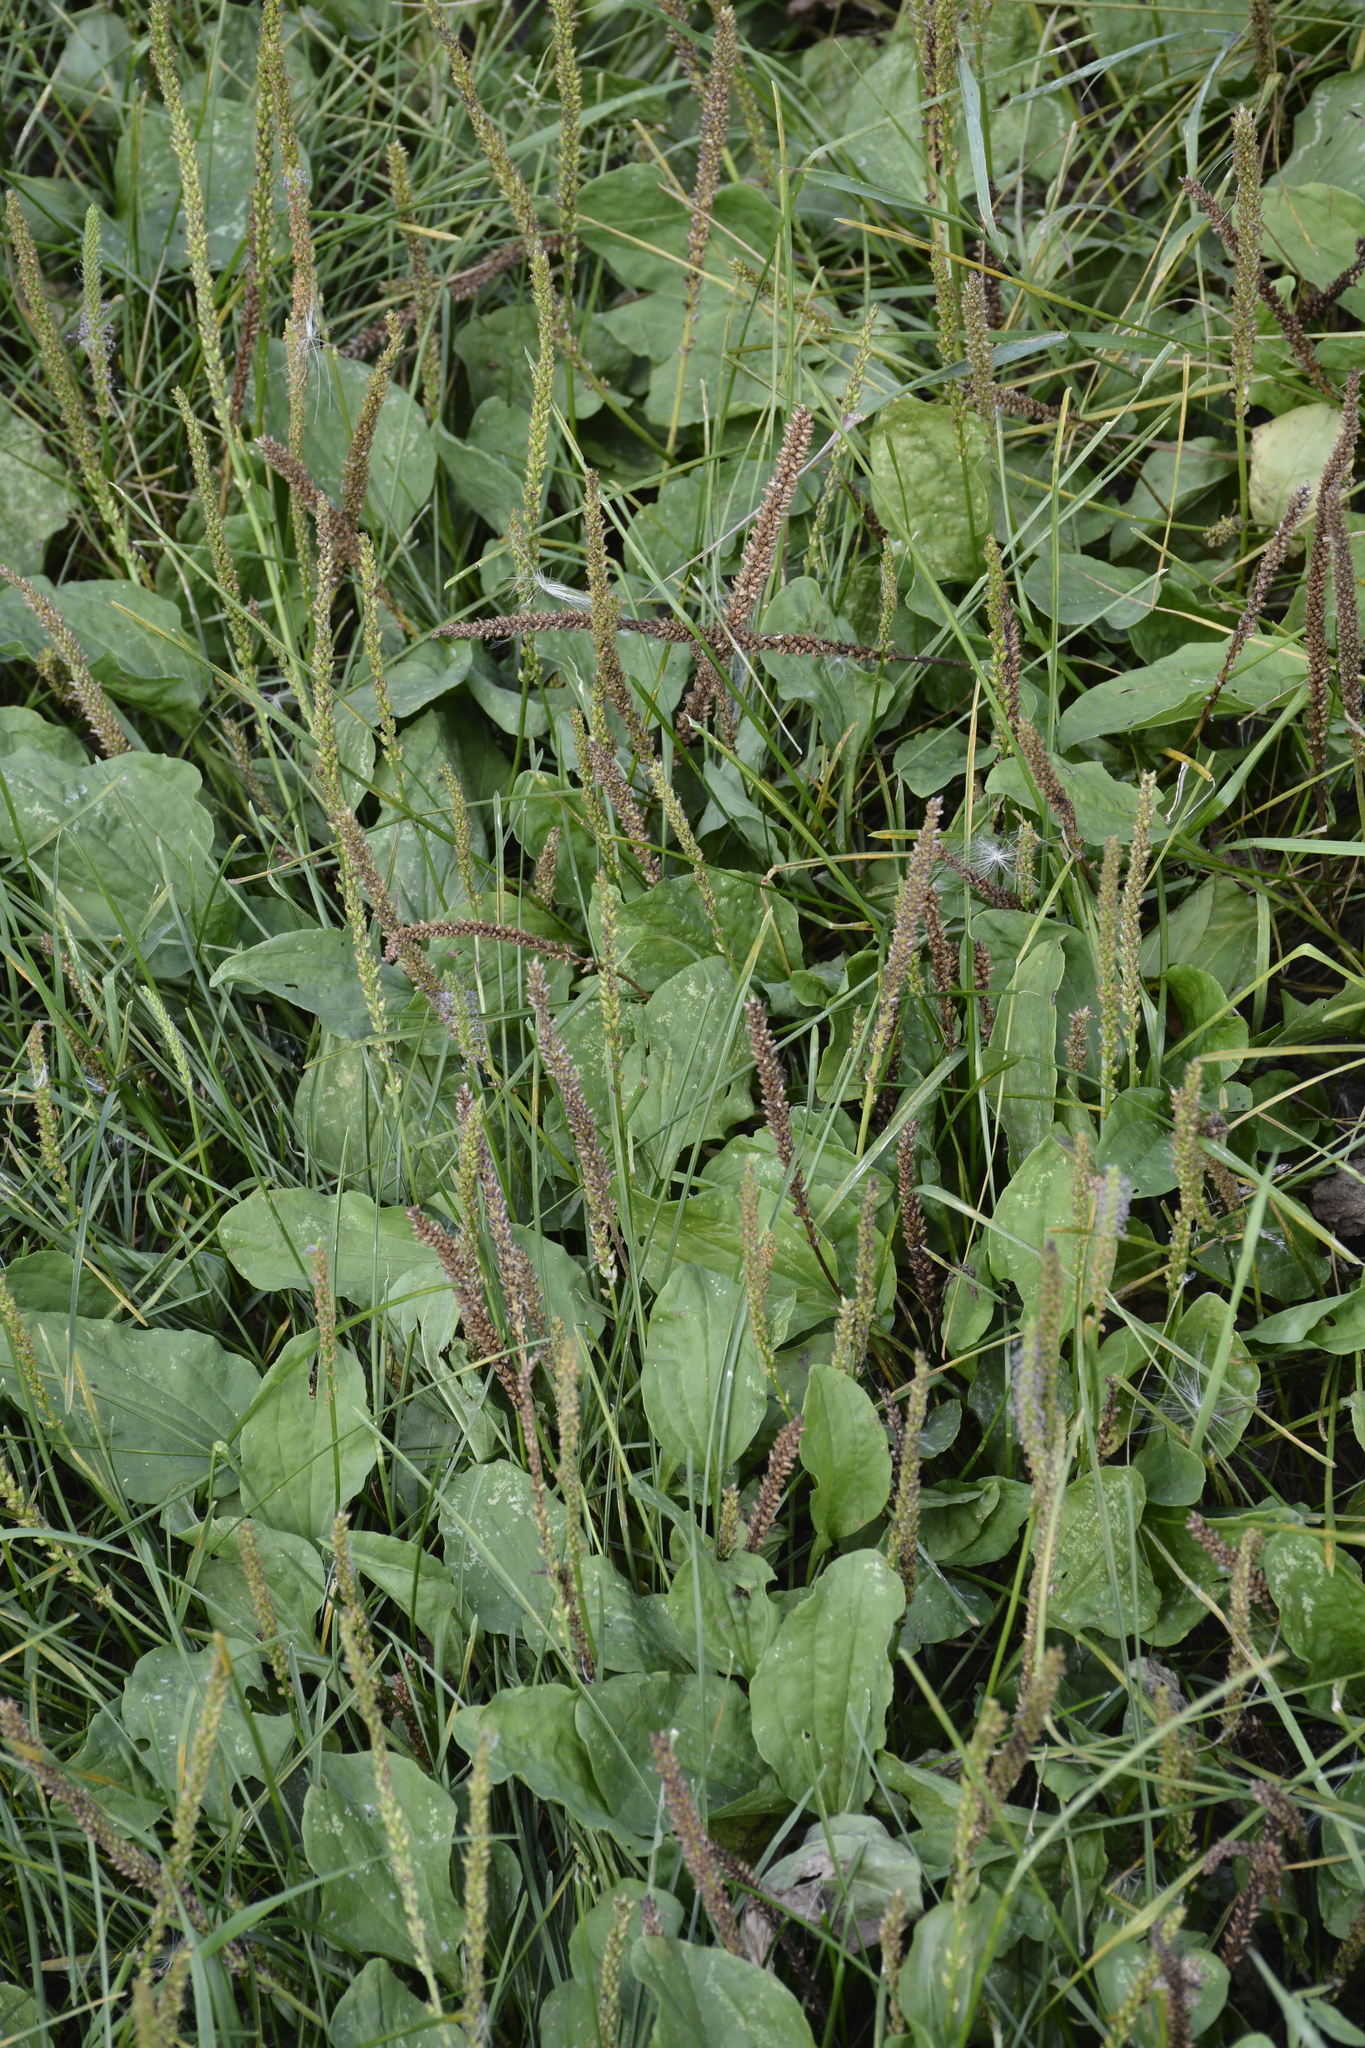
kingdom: Plantae
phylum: Tracheophyta
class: Magnoliopsida
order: Lamiales
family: Plantaginaceae
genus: Plantago
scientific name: Plantago major
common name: Common plantain
